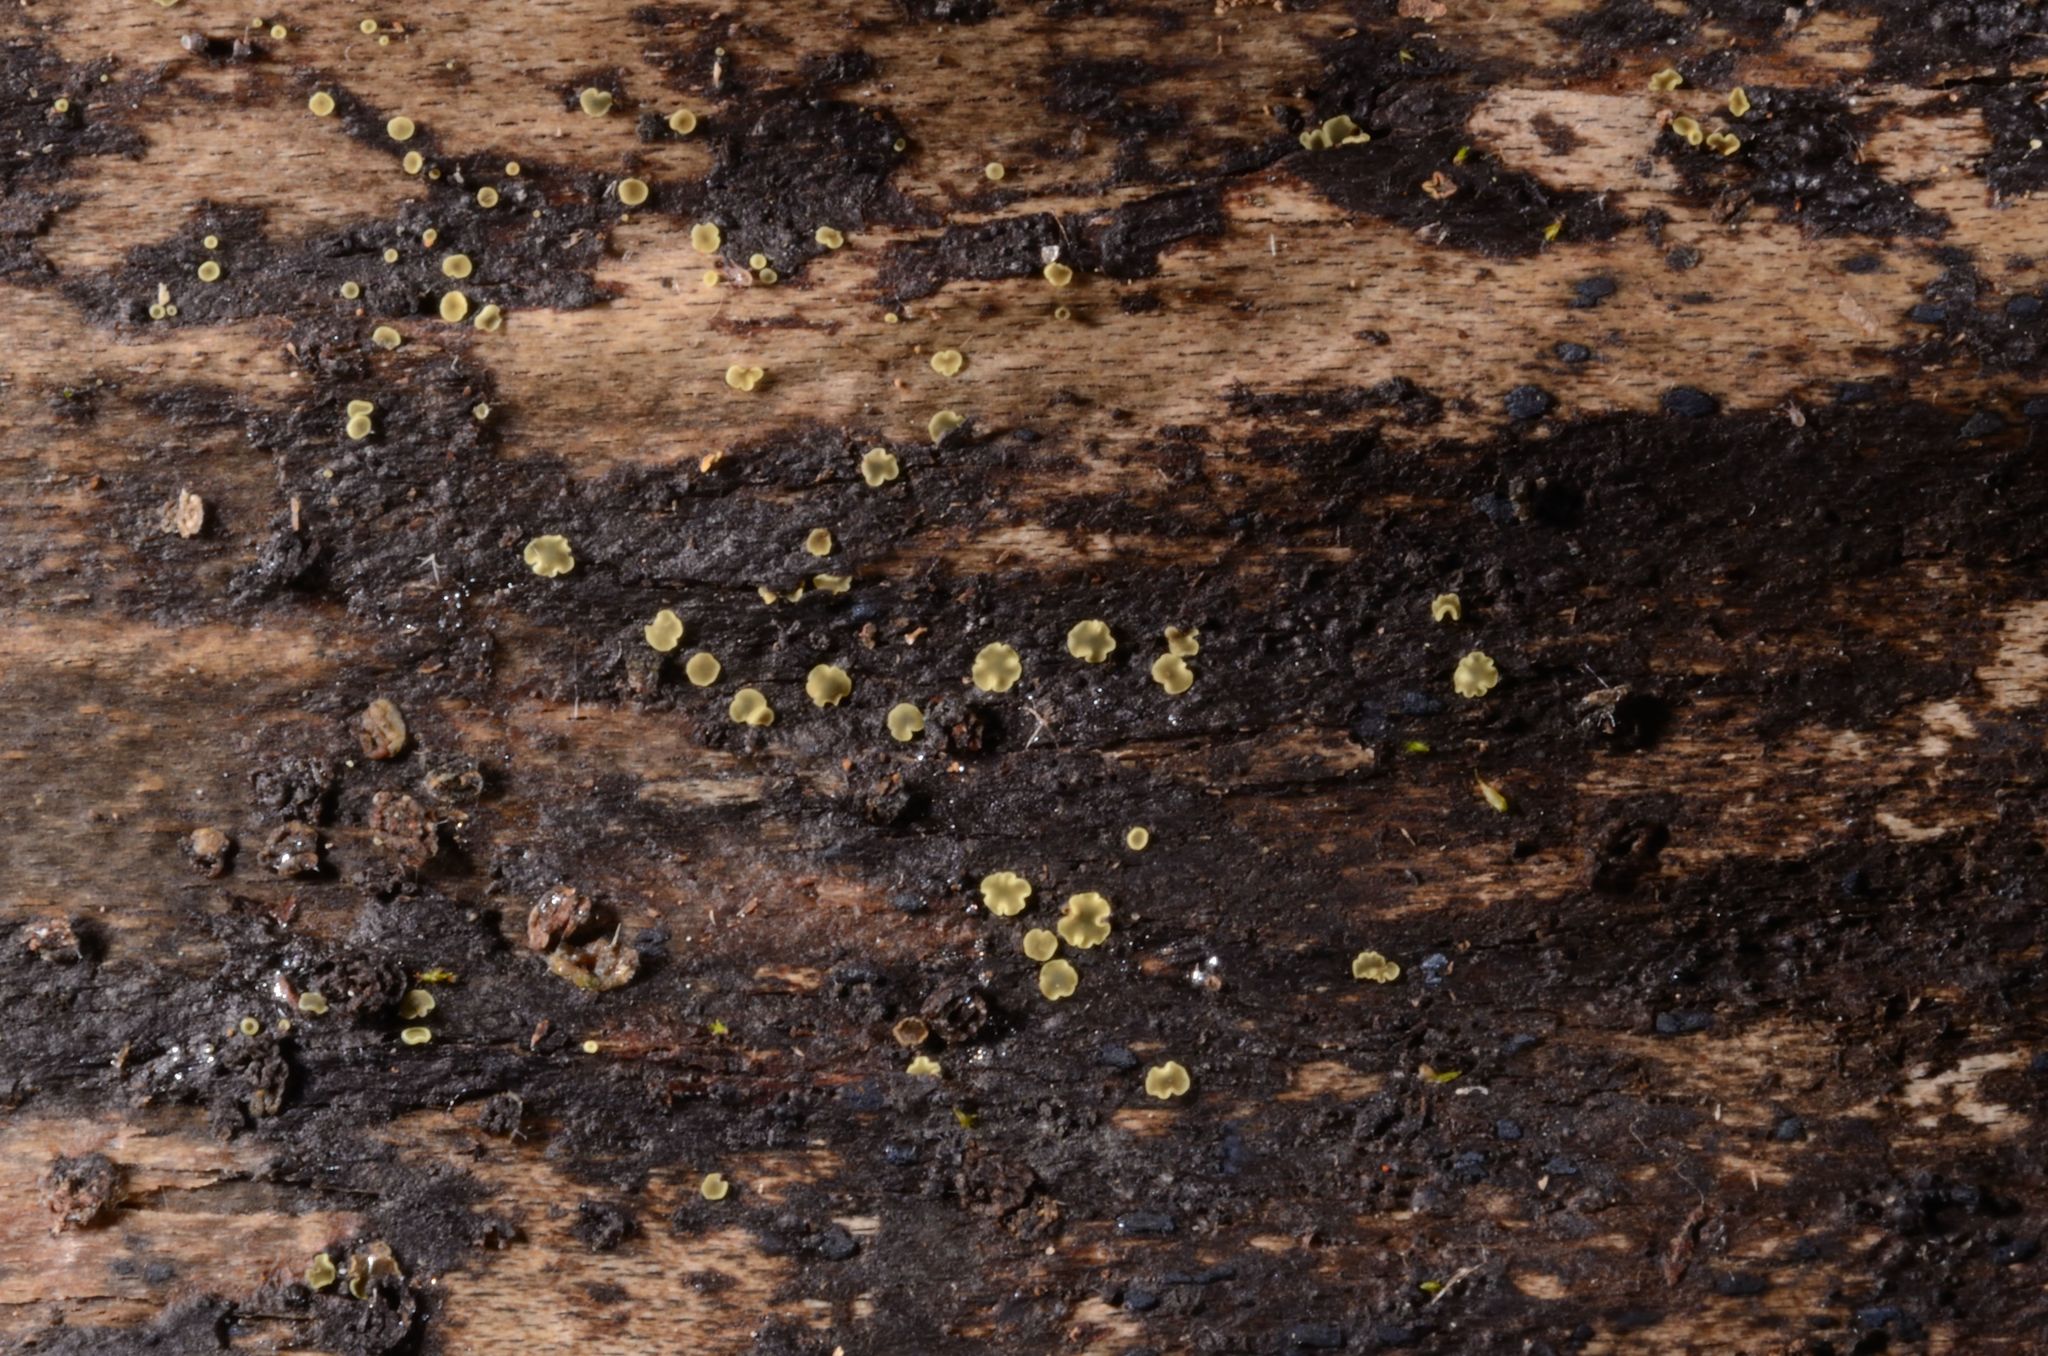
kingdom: Fungi
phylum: Ascomycota
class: Leotiomycetes
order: Helotiales
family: Mollisiaceae
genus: Mollisia
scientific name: Mollisia sublividula
